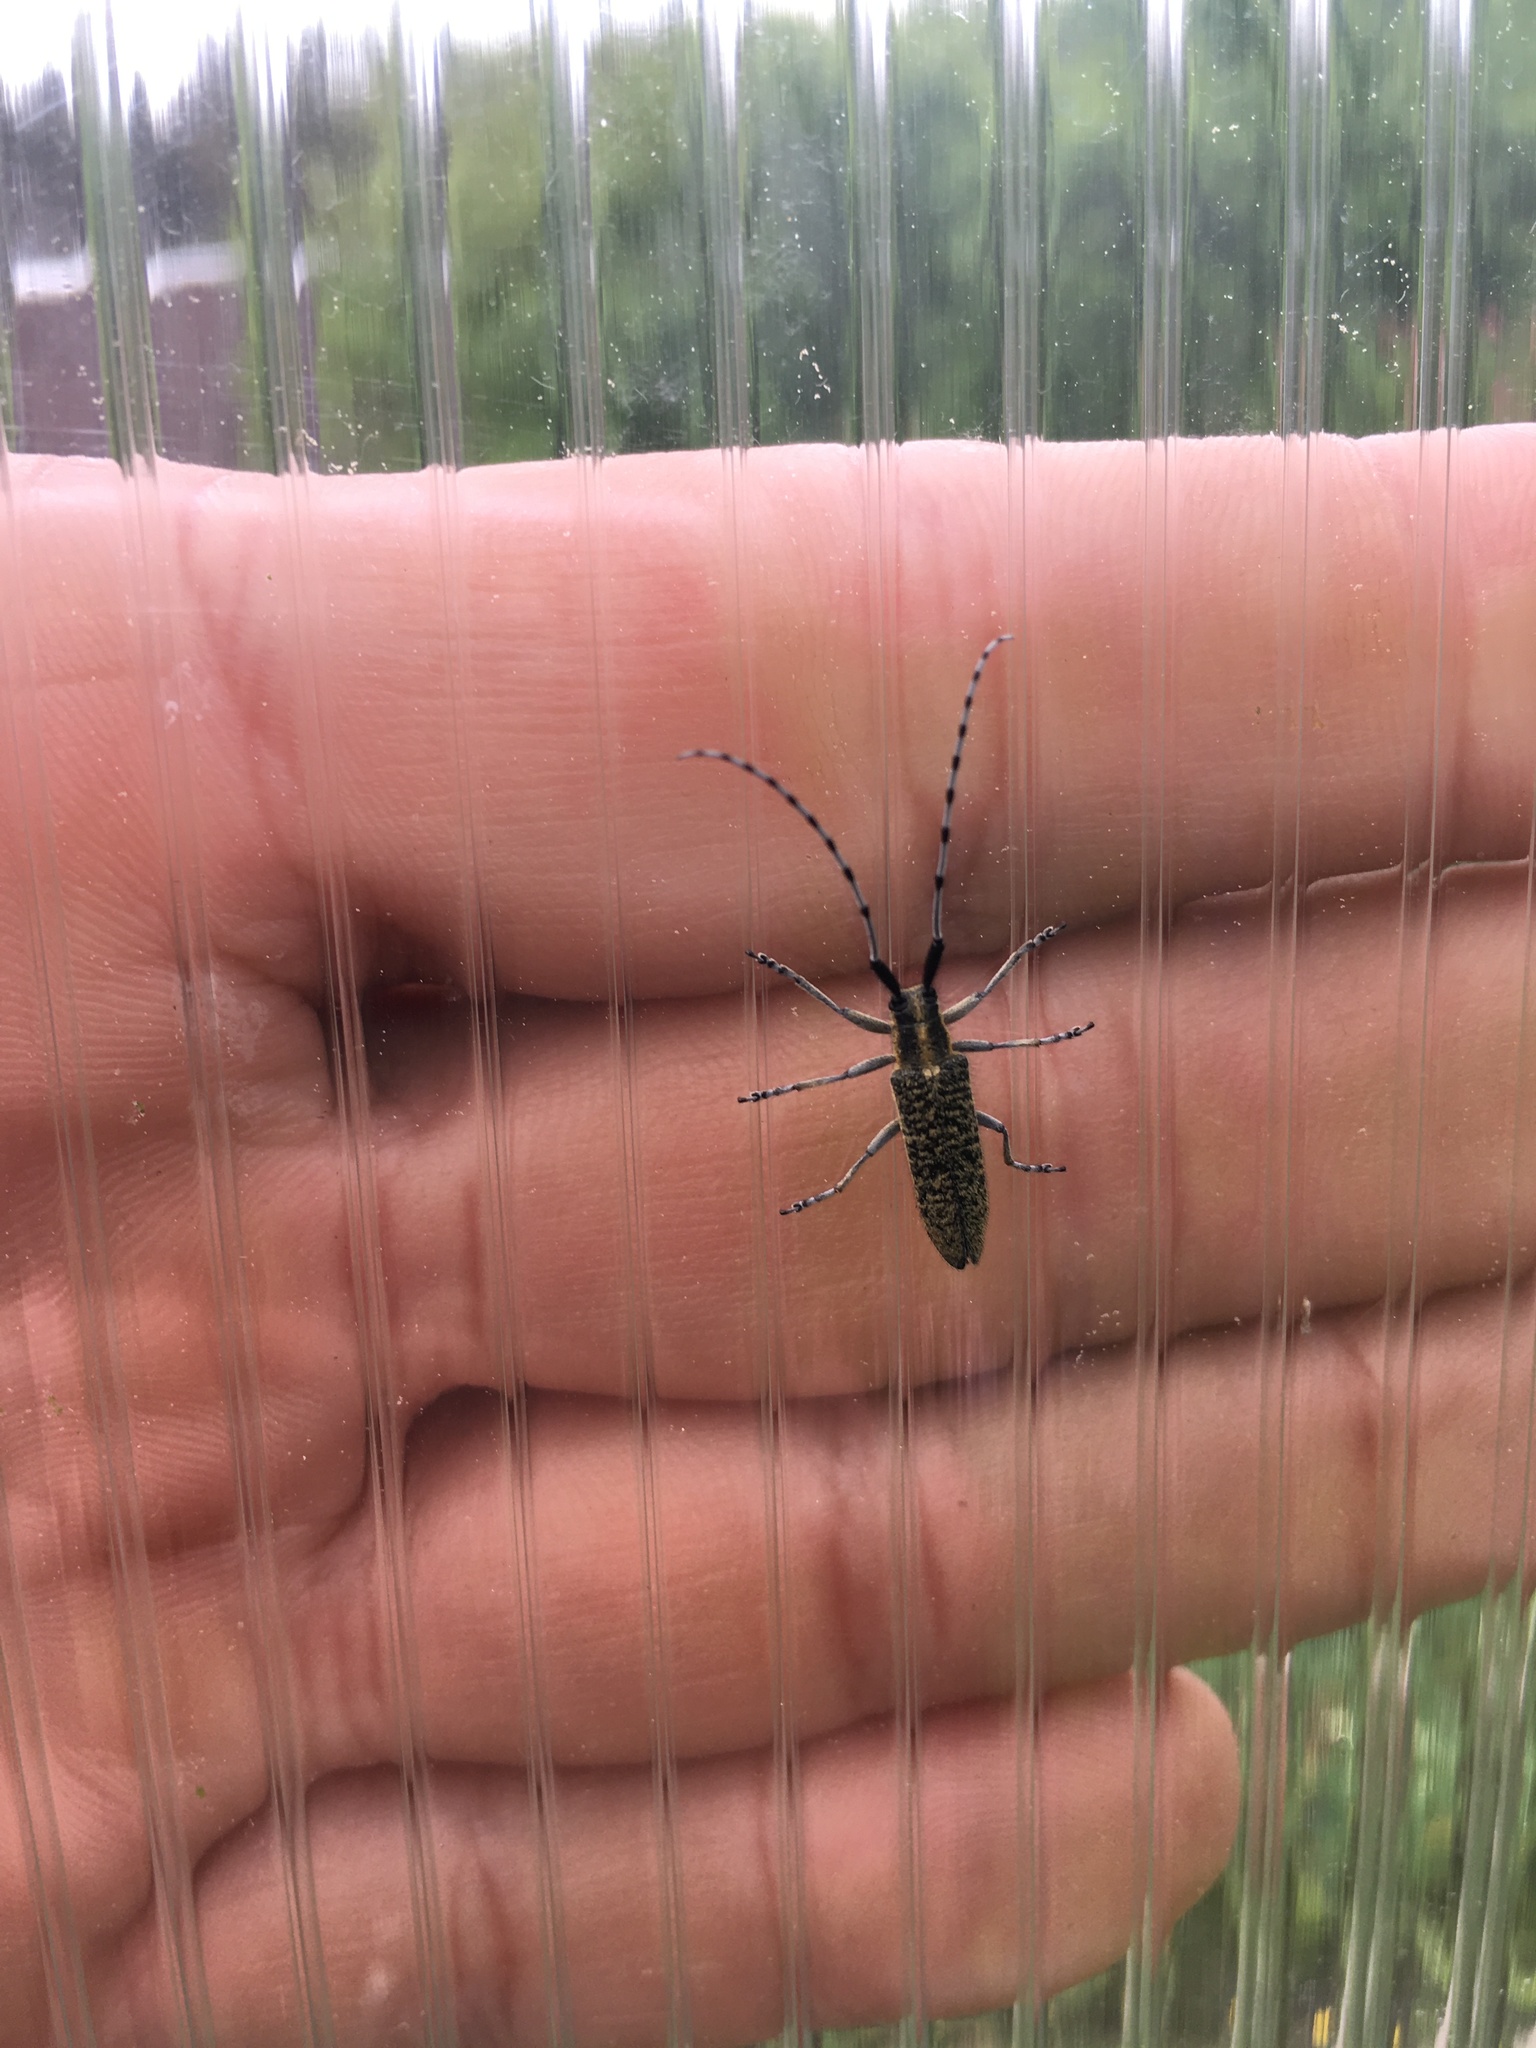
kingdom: Animalia
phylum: Arthropoda
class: Insecta
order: Coleoptera
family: Cerambycidae
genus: Agapanthia
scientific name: Agapanthia villosoviridescens
